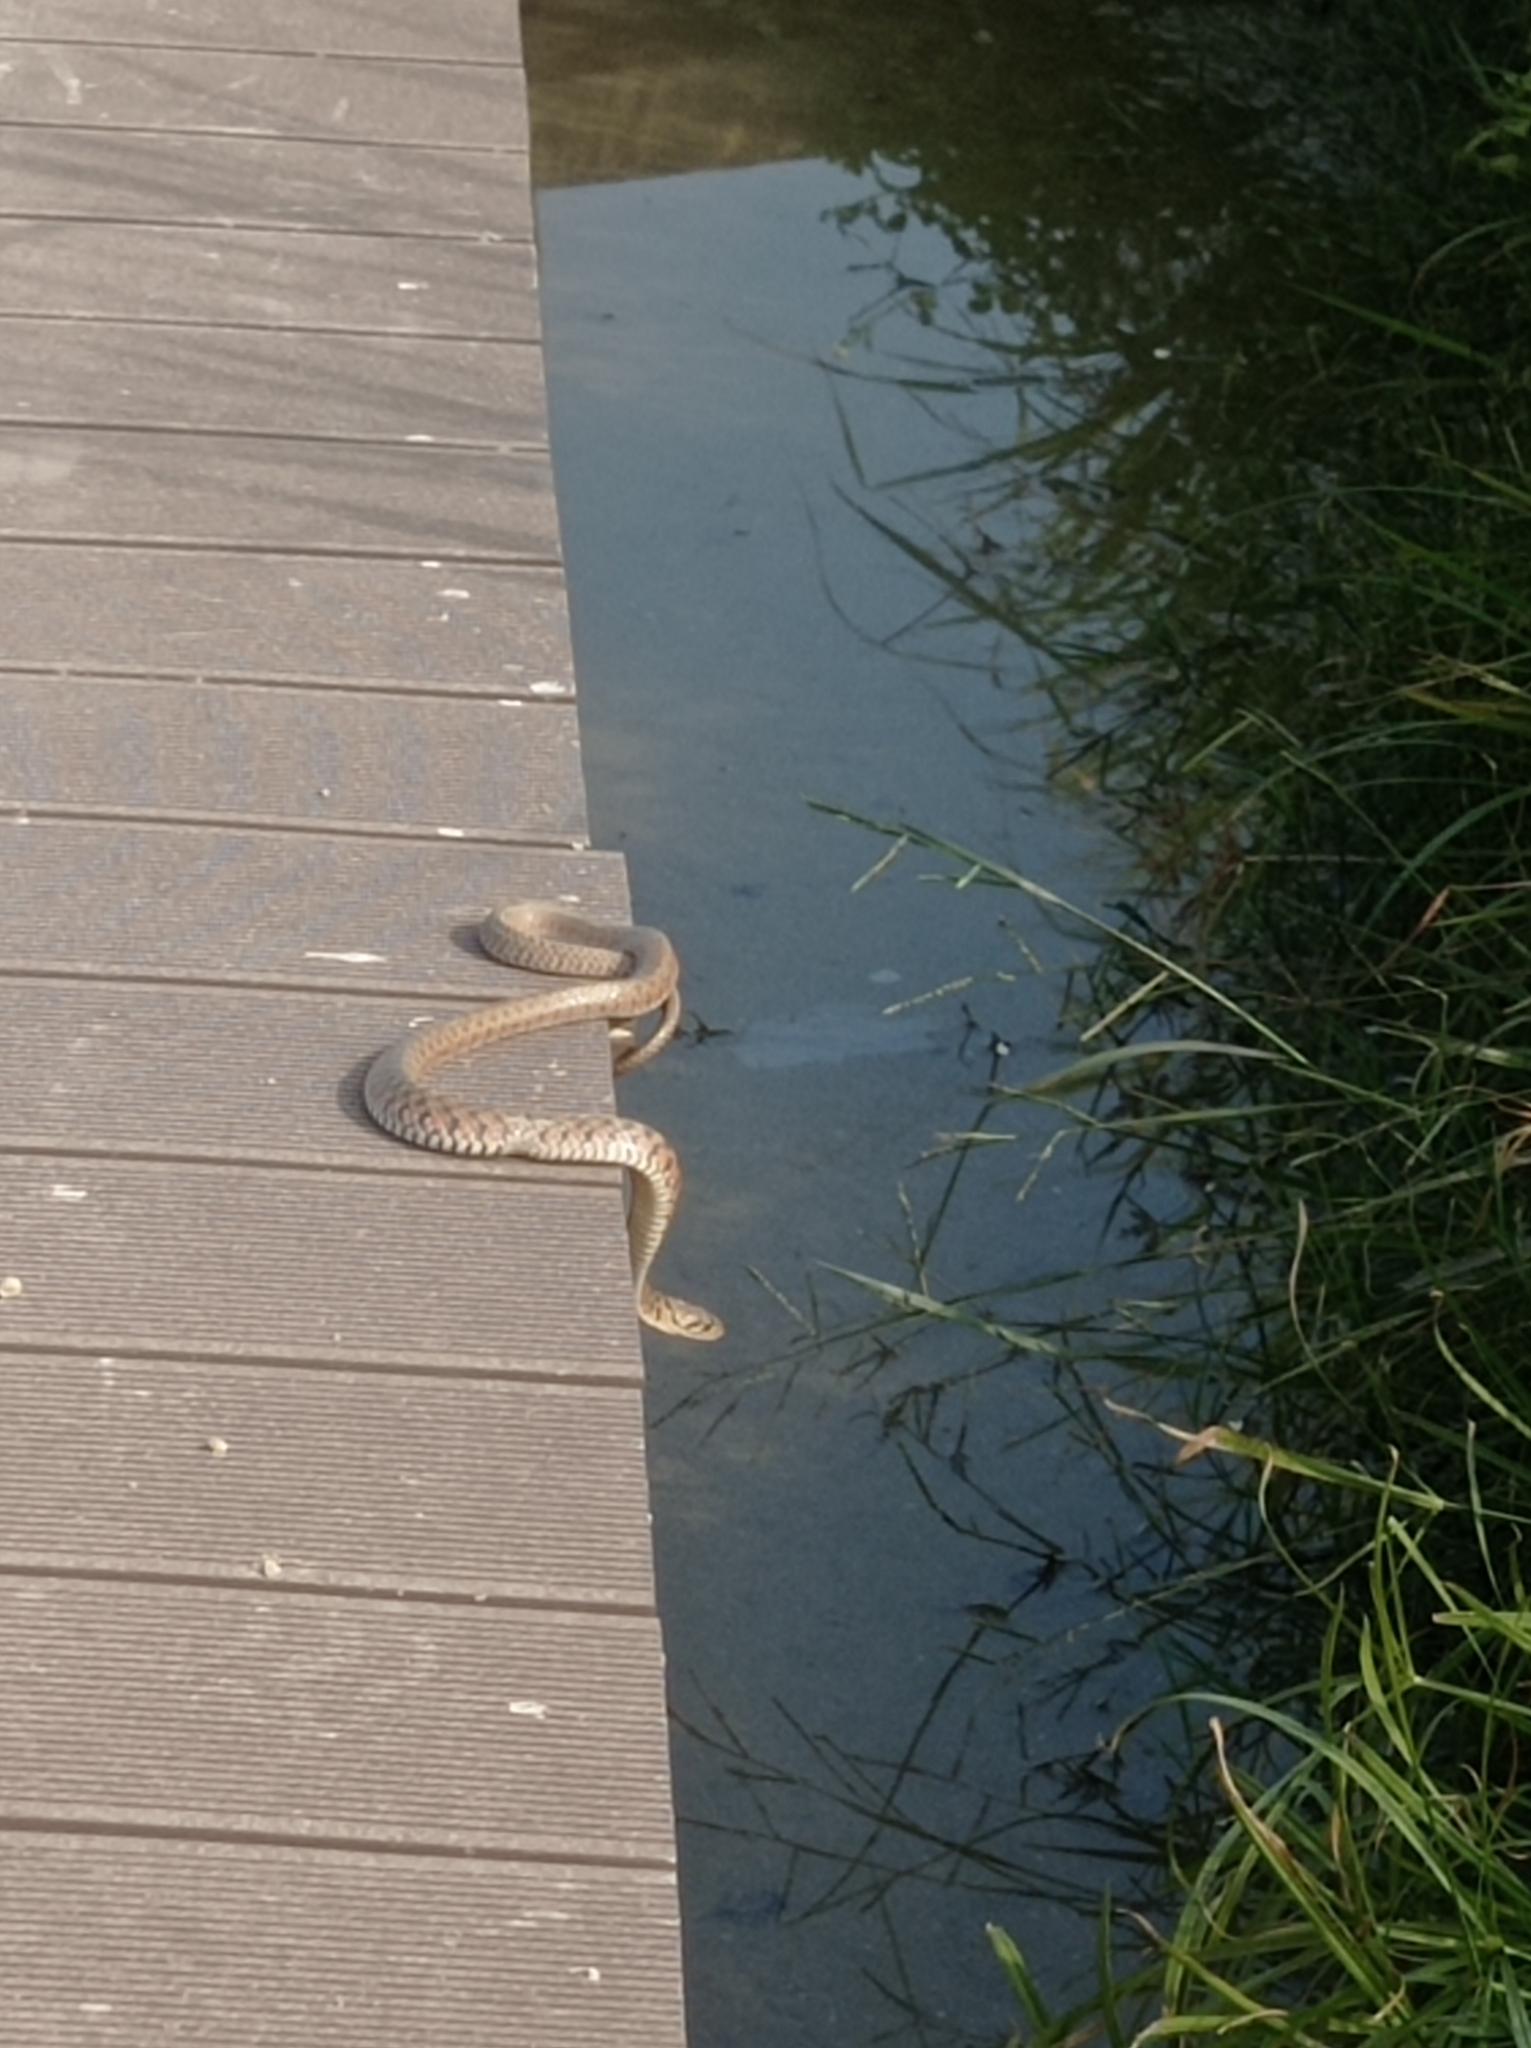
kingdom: Animalia
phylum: Chordata
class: Squamata
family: Colubridae
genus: Fowlea
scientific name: Fowlea flavipunctatus
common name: Yellow-spotted keelback
